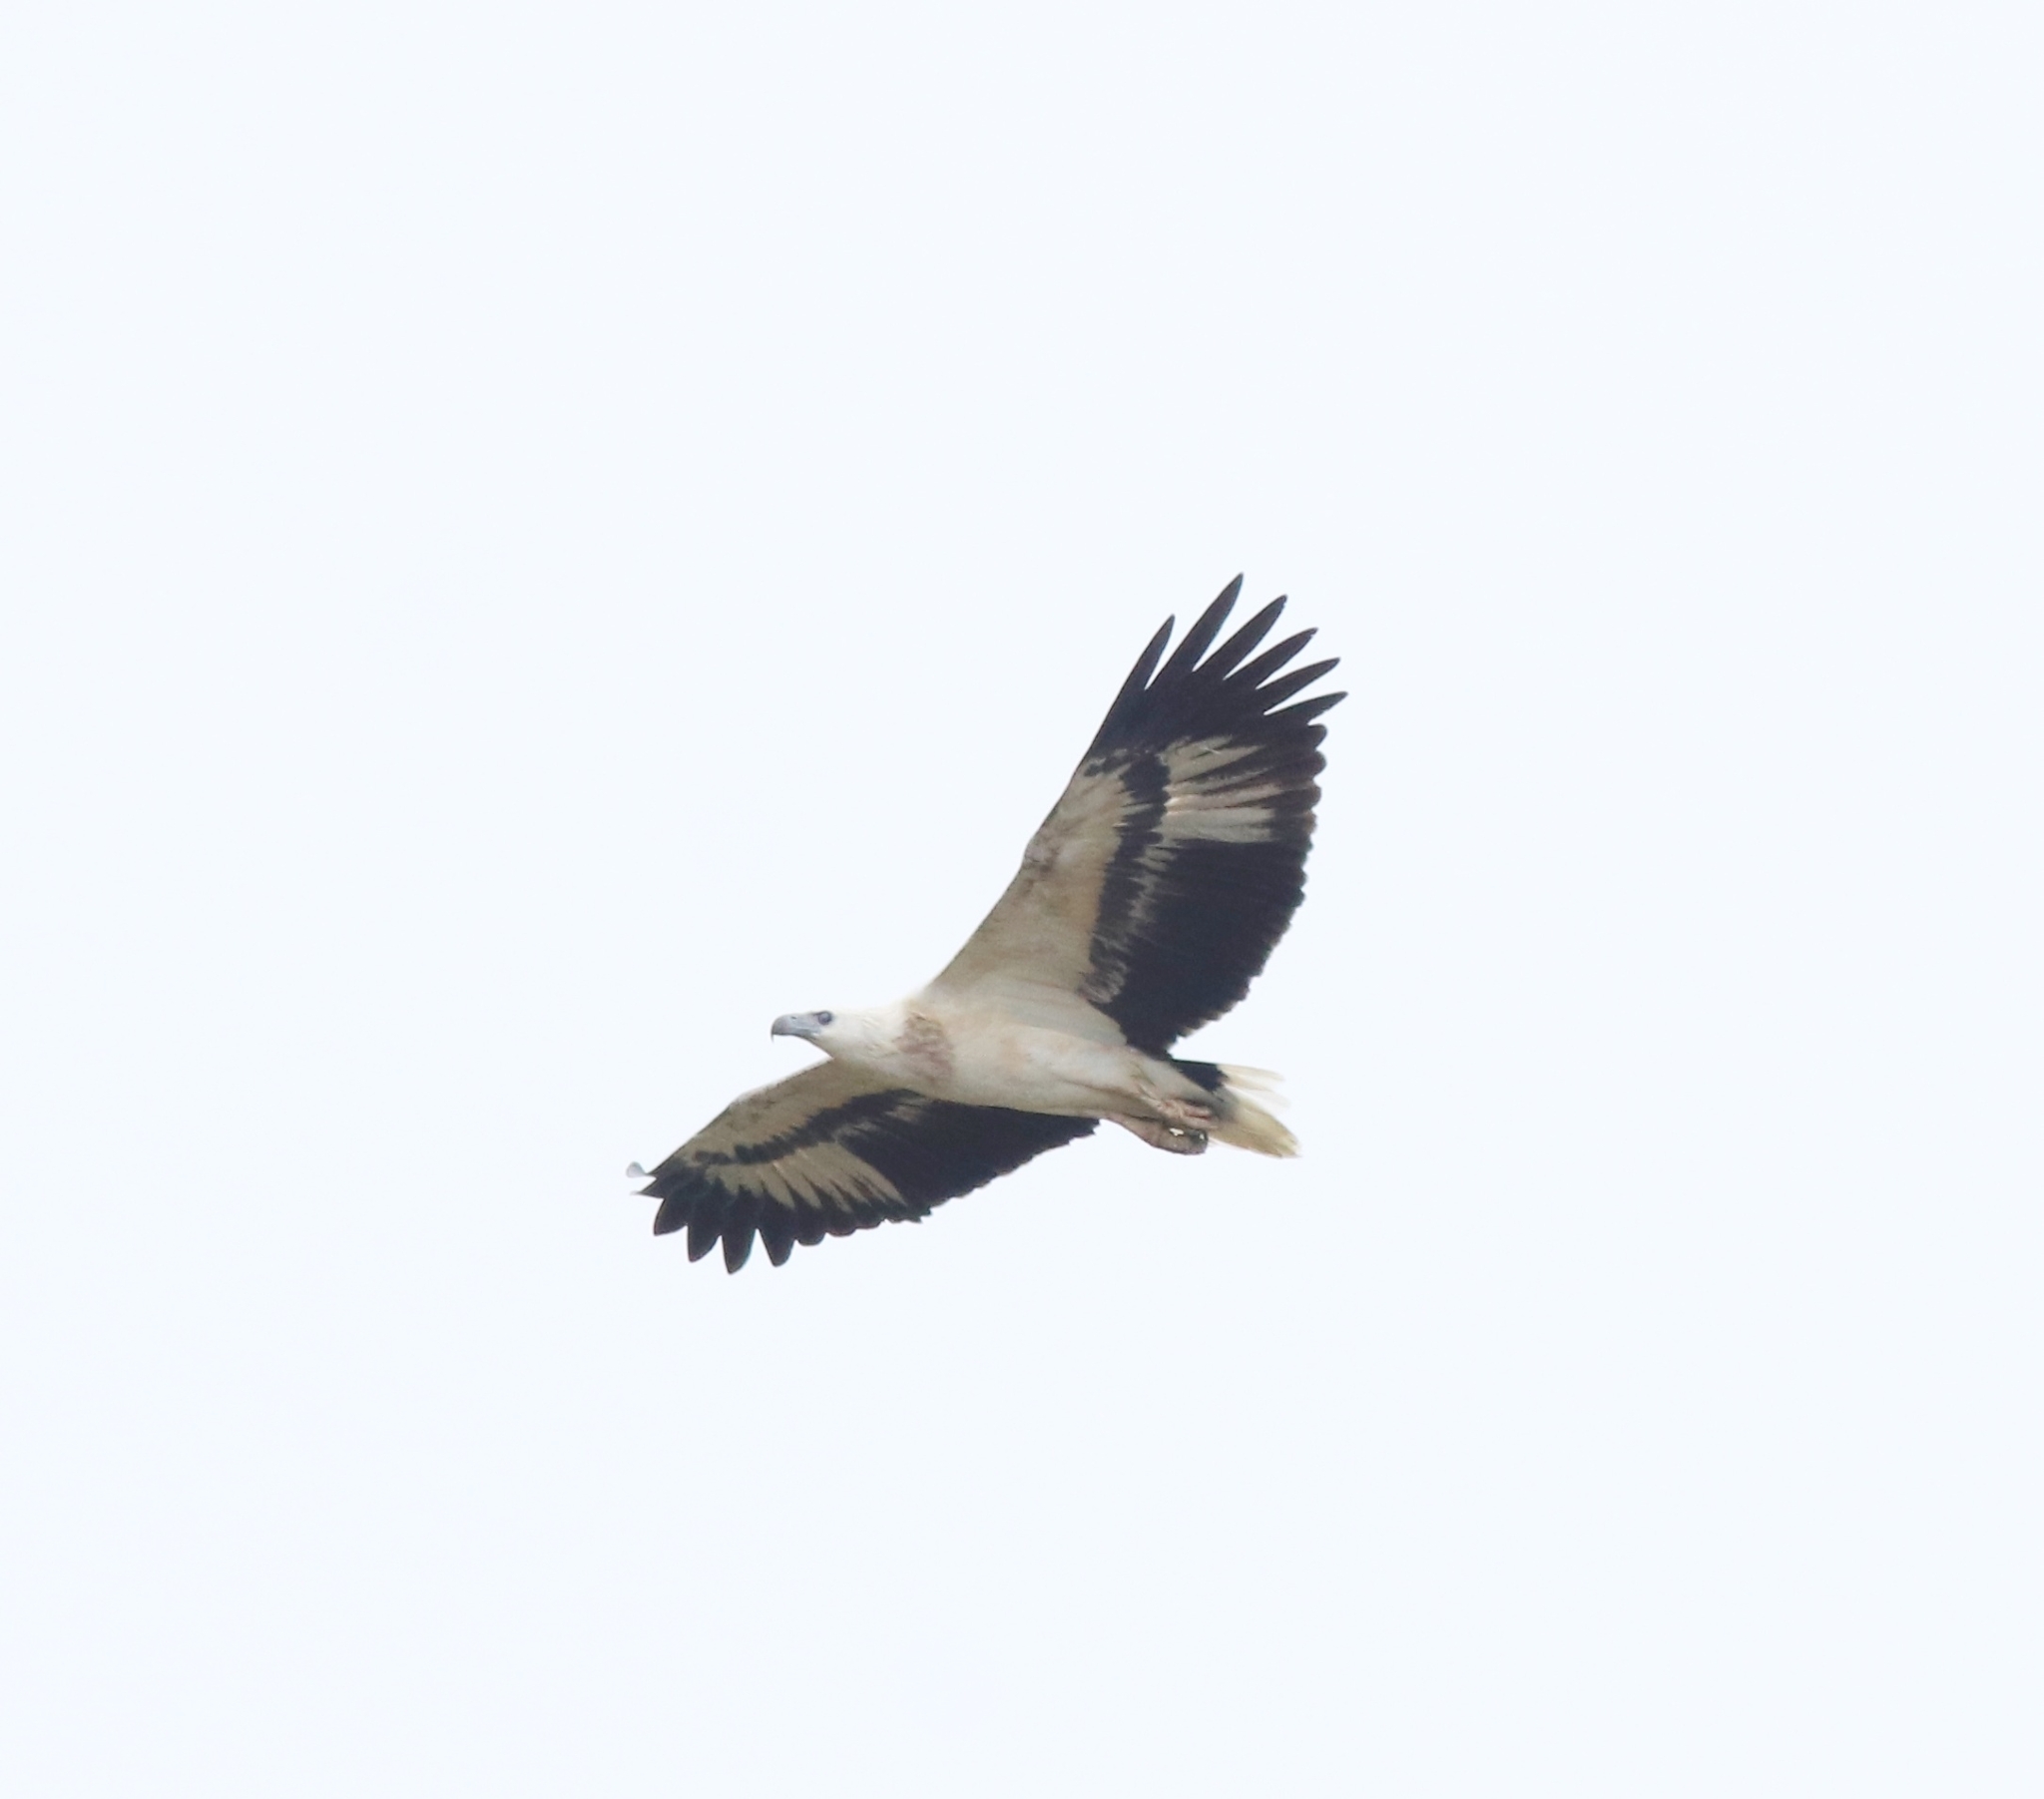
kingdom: Animalia
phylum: Chordata
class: Aves
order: Accipitriformes
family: Accipitridae
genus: Haliaeetus
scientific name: Haliaeetus leucogaster
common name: White-bellied sea eagle
